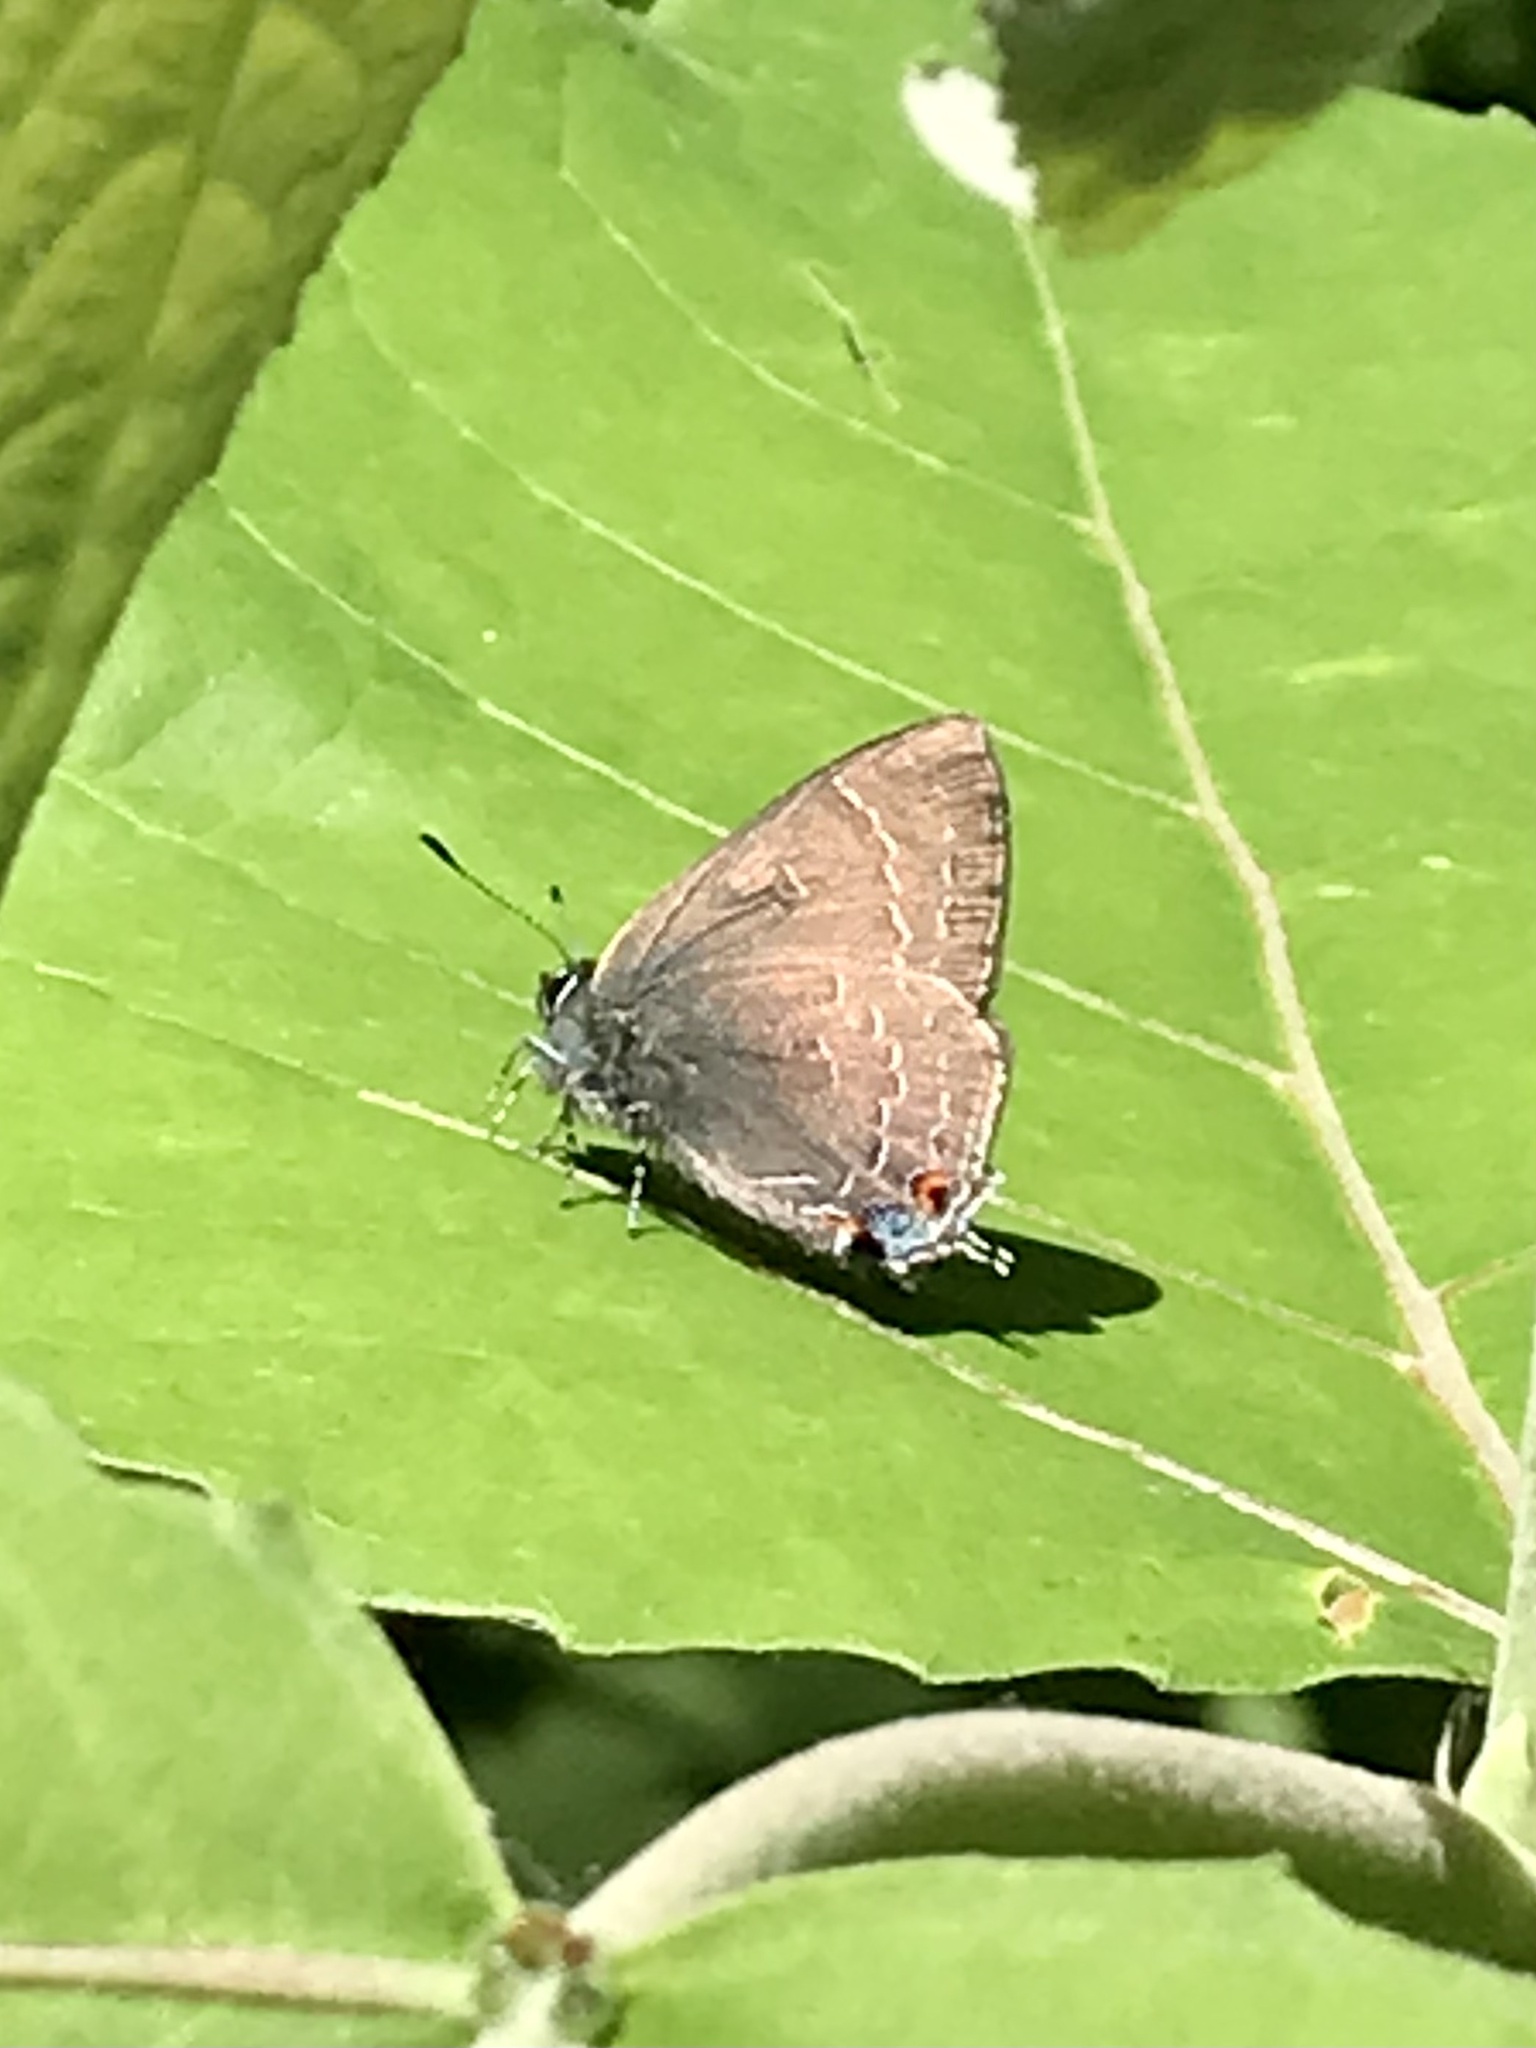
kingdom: Animalia
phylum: Arthropoda
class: Insecta
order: Lepidoptera
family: Lycaenidae
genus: Satyrium
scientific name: Satyrium calanus
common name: Banded hairstreak
